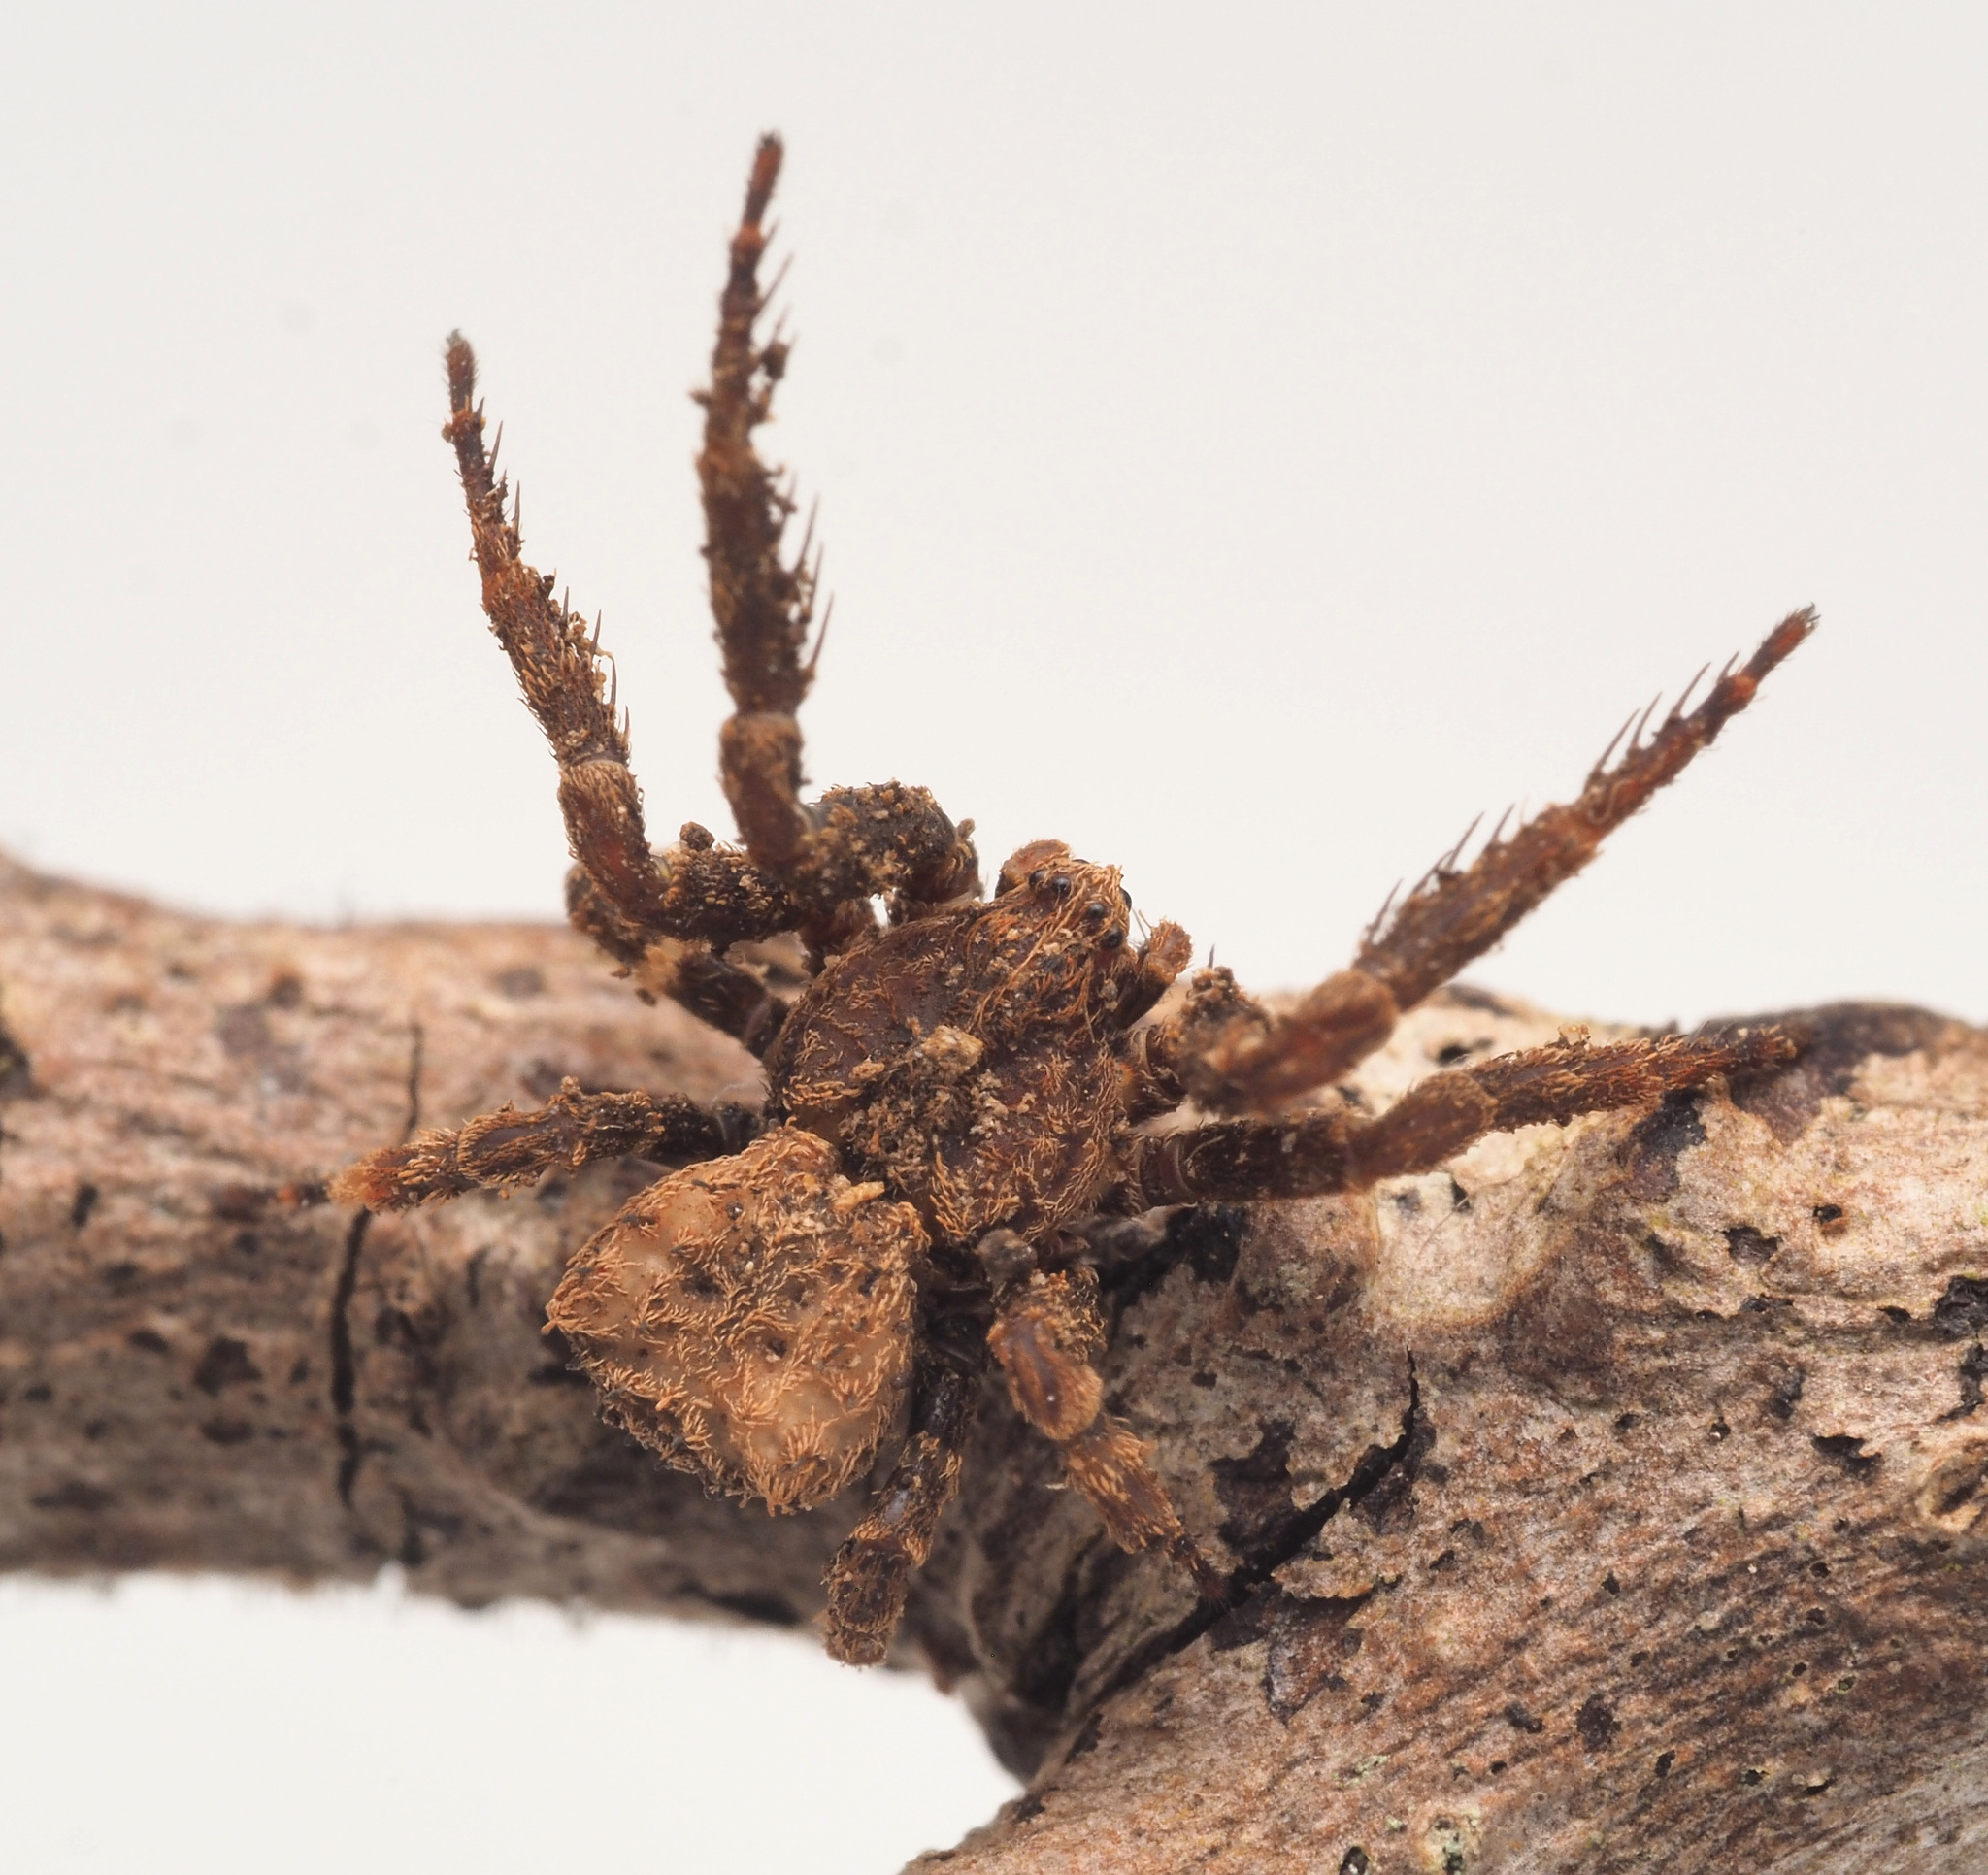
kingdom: Animalia
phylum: Arthropoda
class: Arachnida
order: Araneae
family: Thomisidae
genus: Stephanopis
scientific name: Stephanopis
